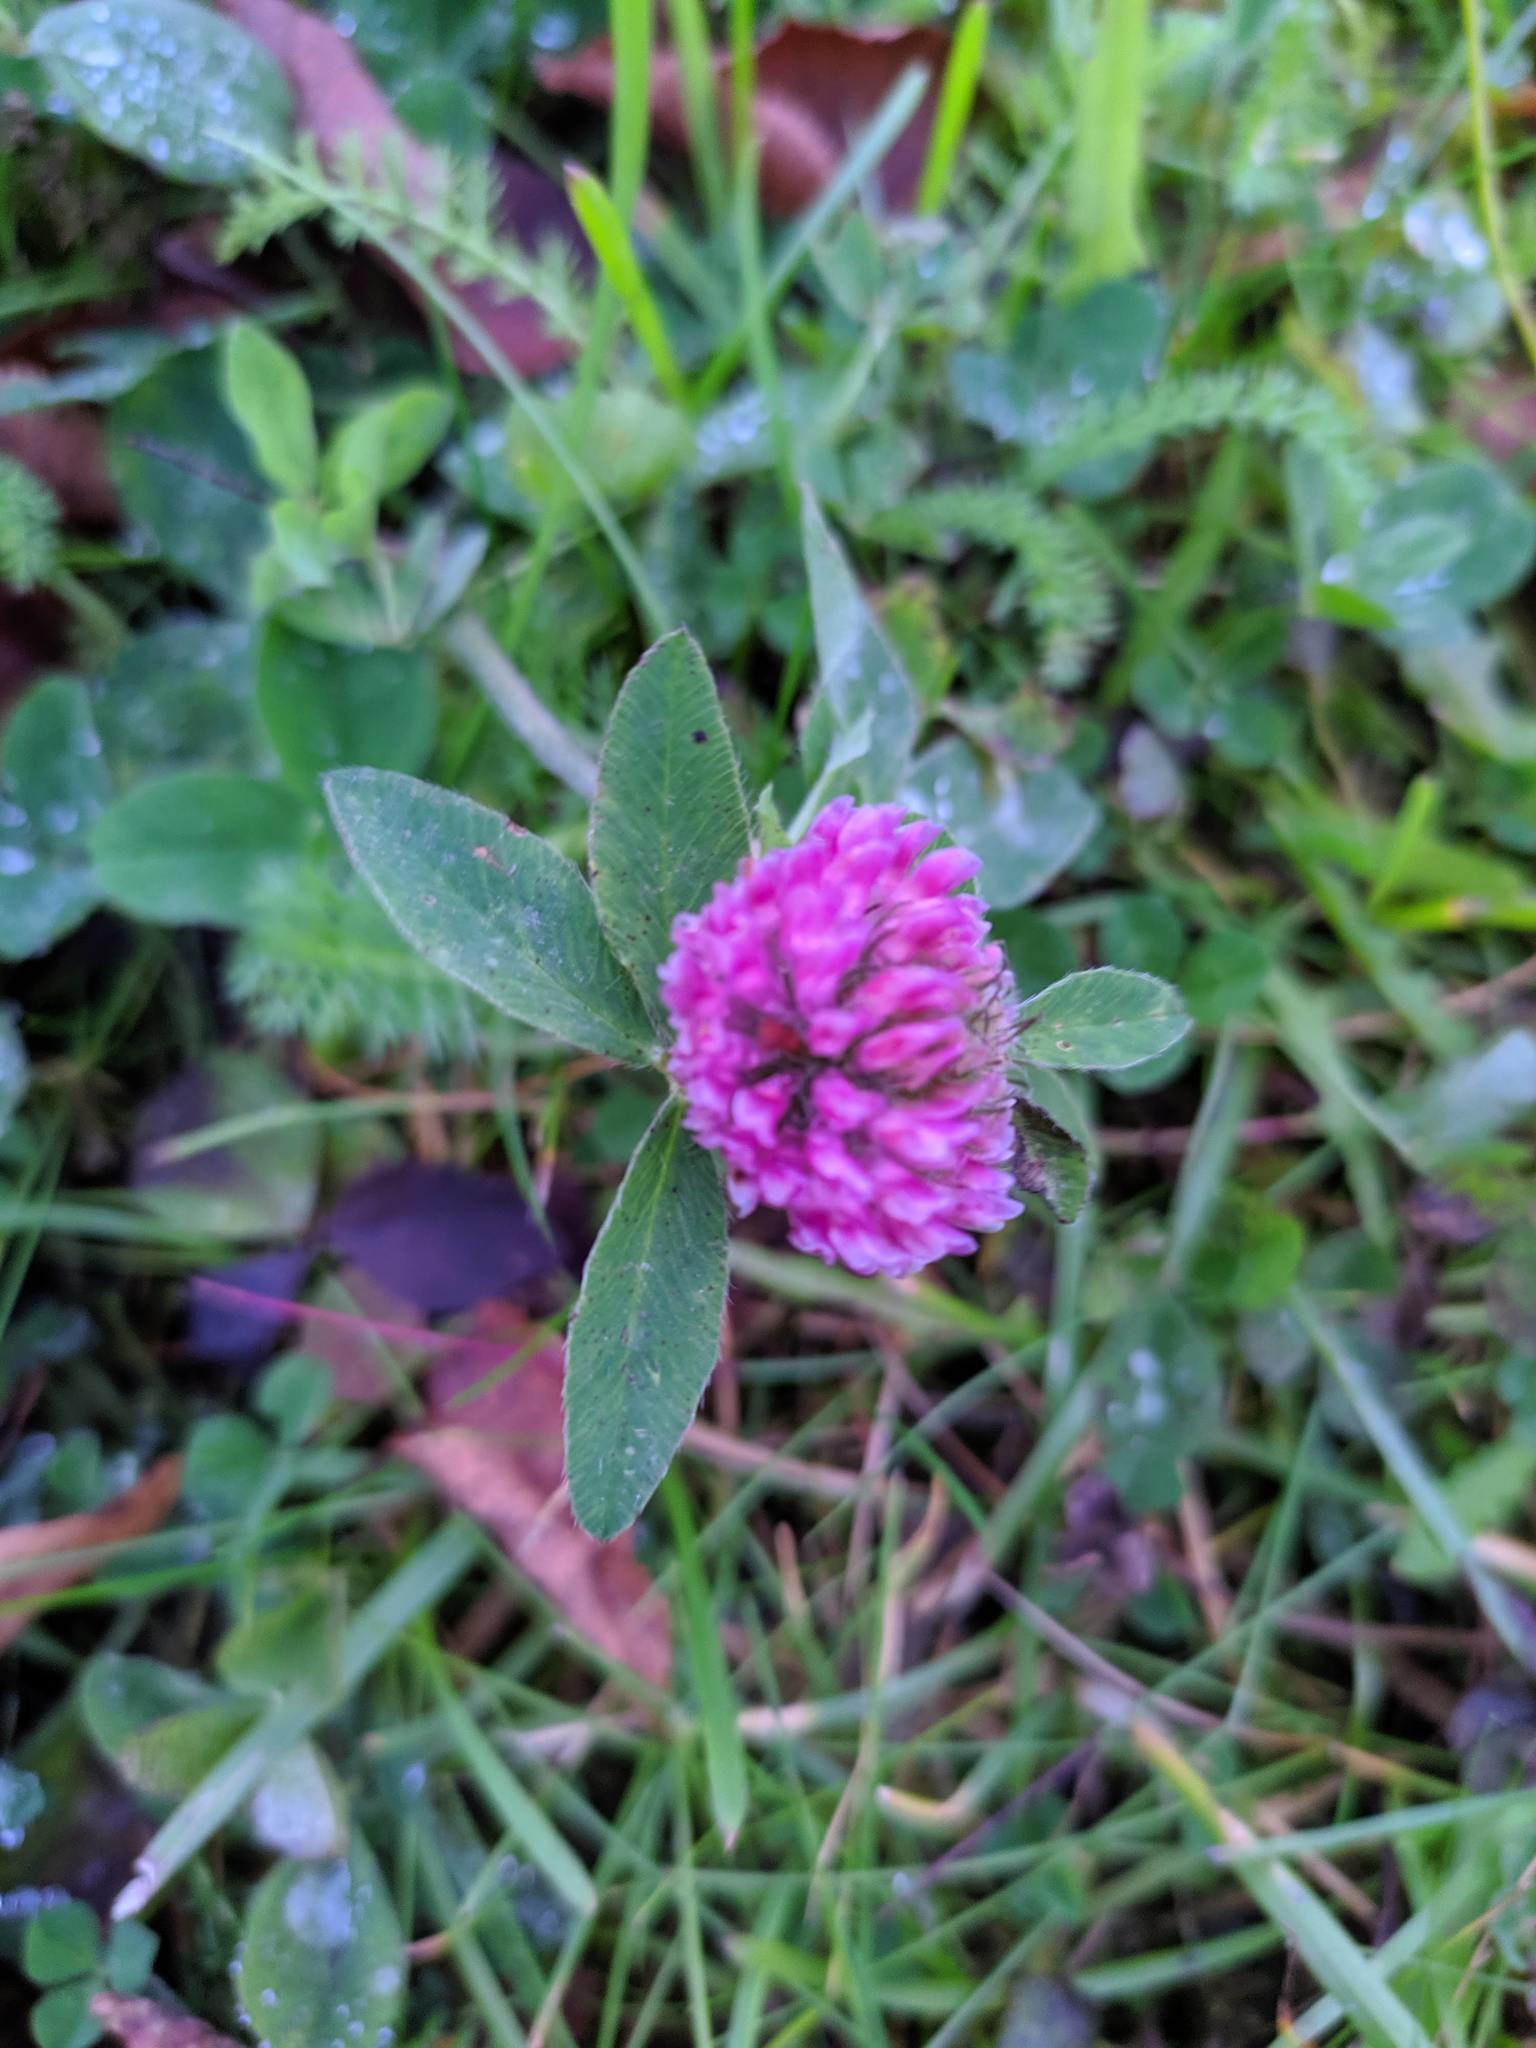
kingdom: Plantae
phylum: Tracheophyta
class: Magnoliopsida
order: Fabales
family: Fabaceae
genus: Trifolium
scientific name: Trifolium pratense
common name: Red clover
